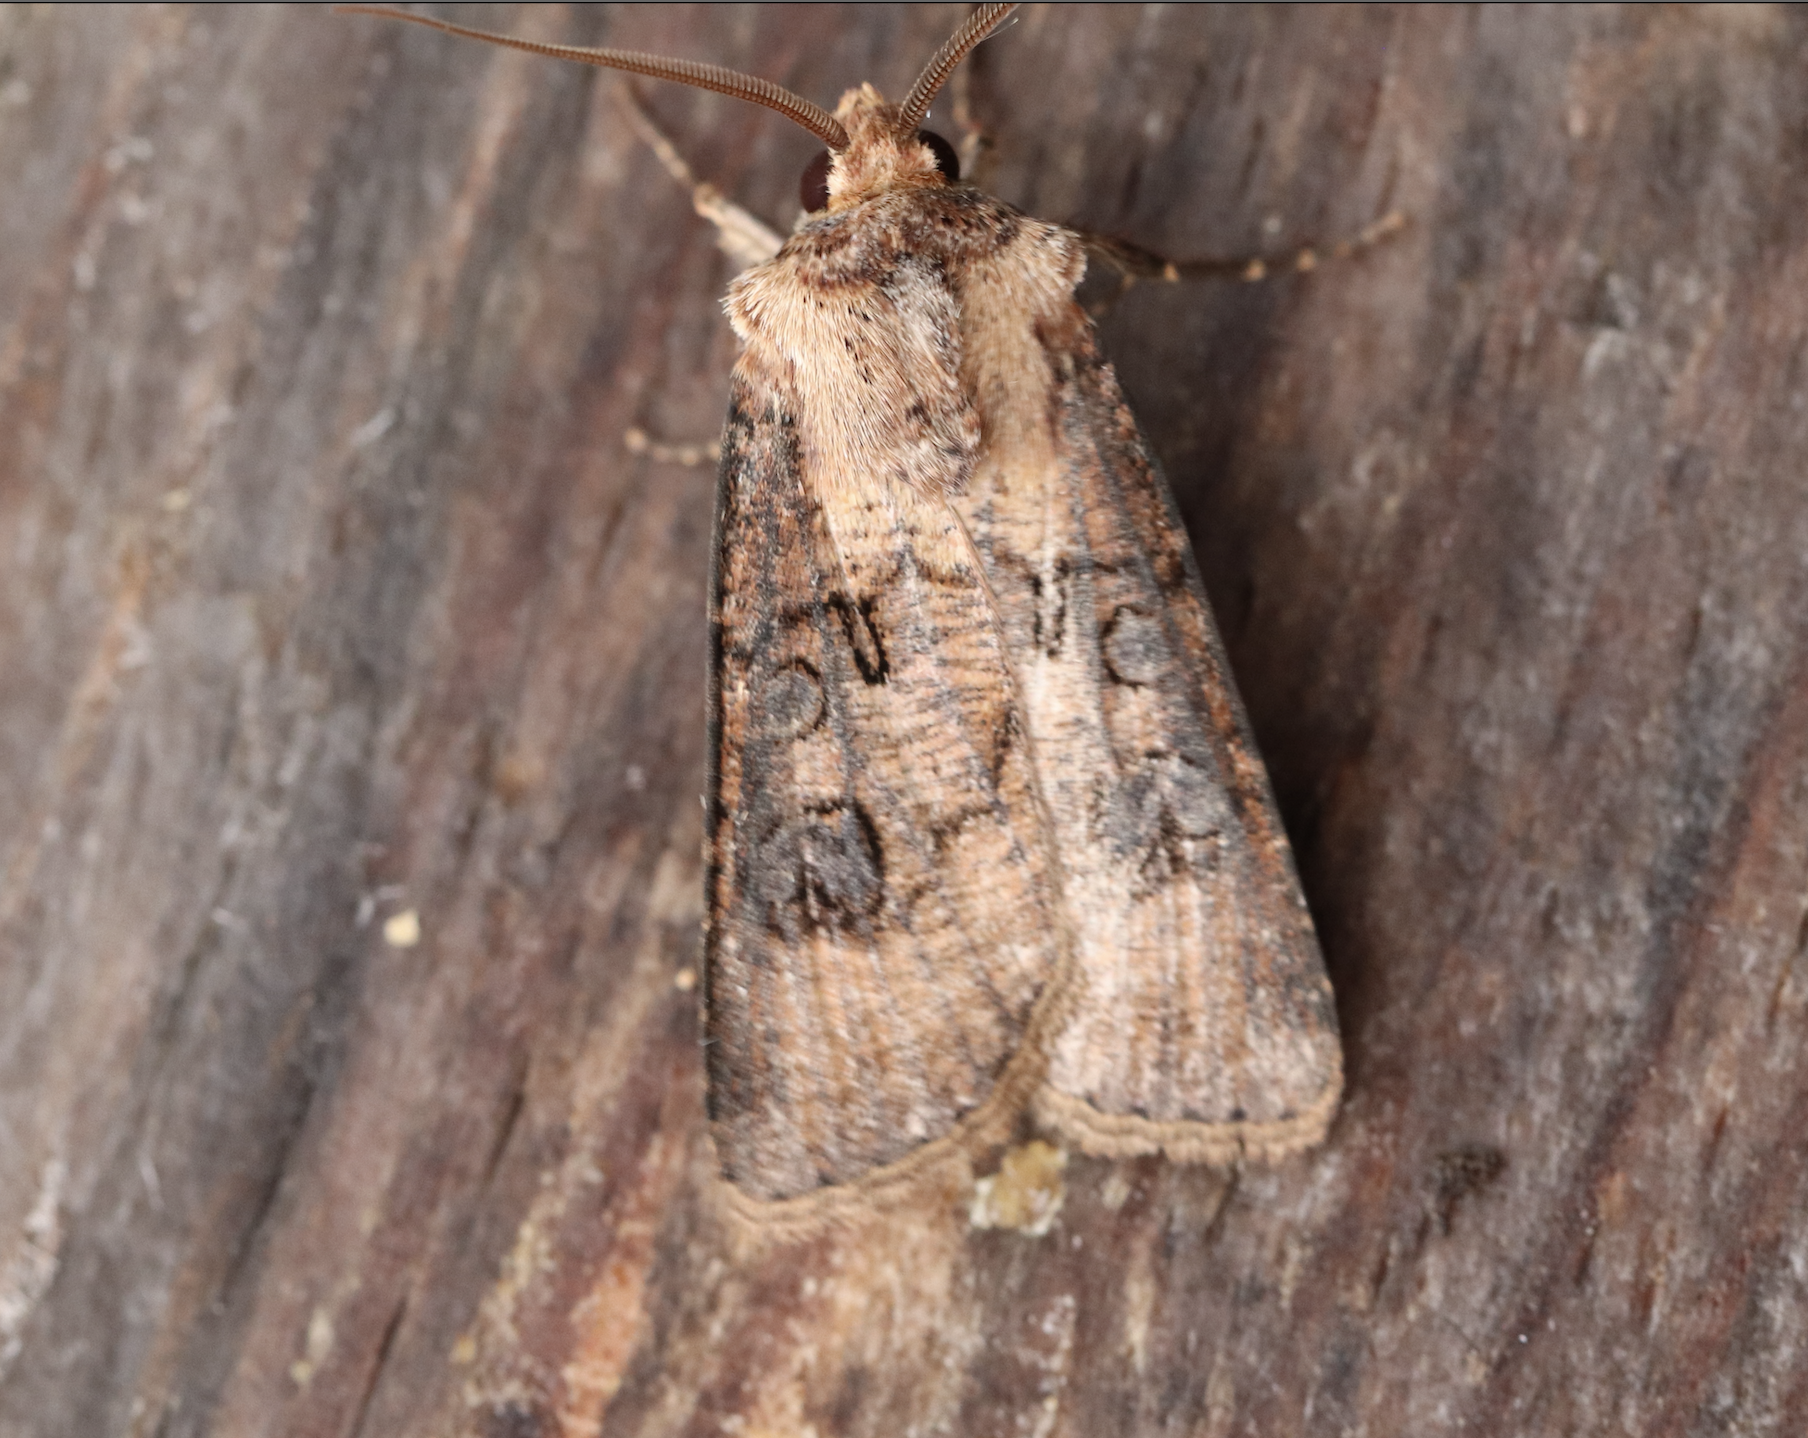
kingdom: Animalia
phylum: Arthropoda
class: Insecta
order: Lepidoptera
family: Noctuidae
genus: Agrotis
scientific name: Agrotis clavis
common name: Heart and club
